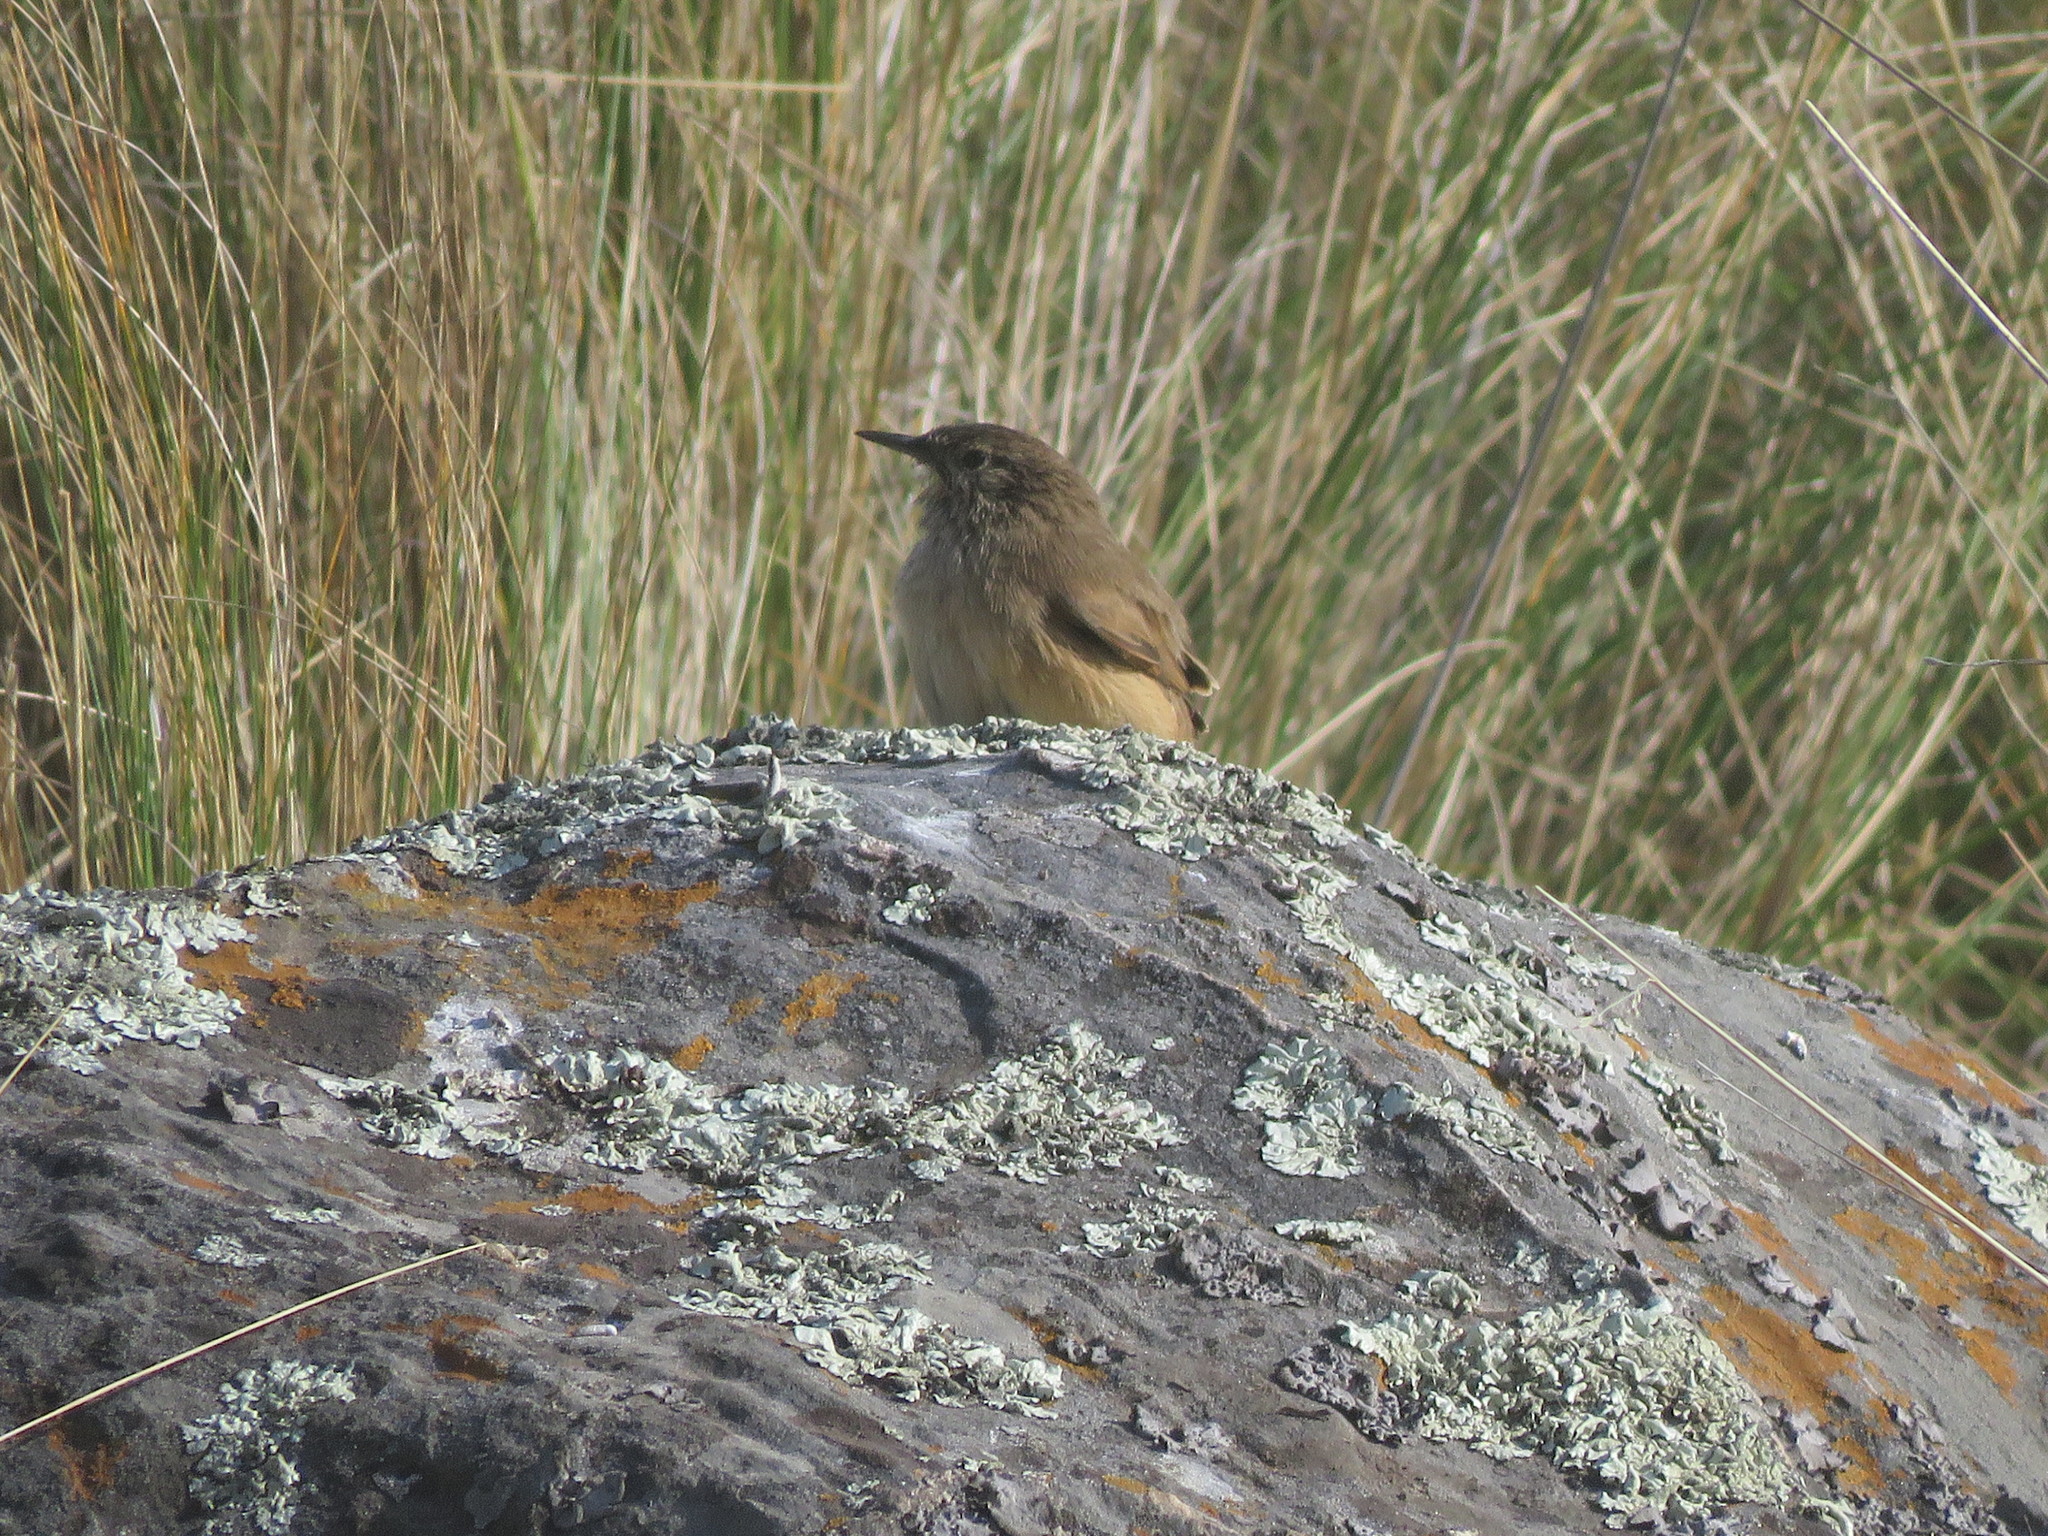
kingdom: Animalia
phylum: Chordata
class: Aves
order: Passeriformes
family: Furnariidae
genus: Asthenes
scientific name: Asthenes modesta
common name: Cordilleran canastero
